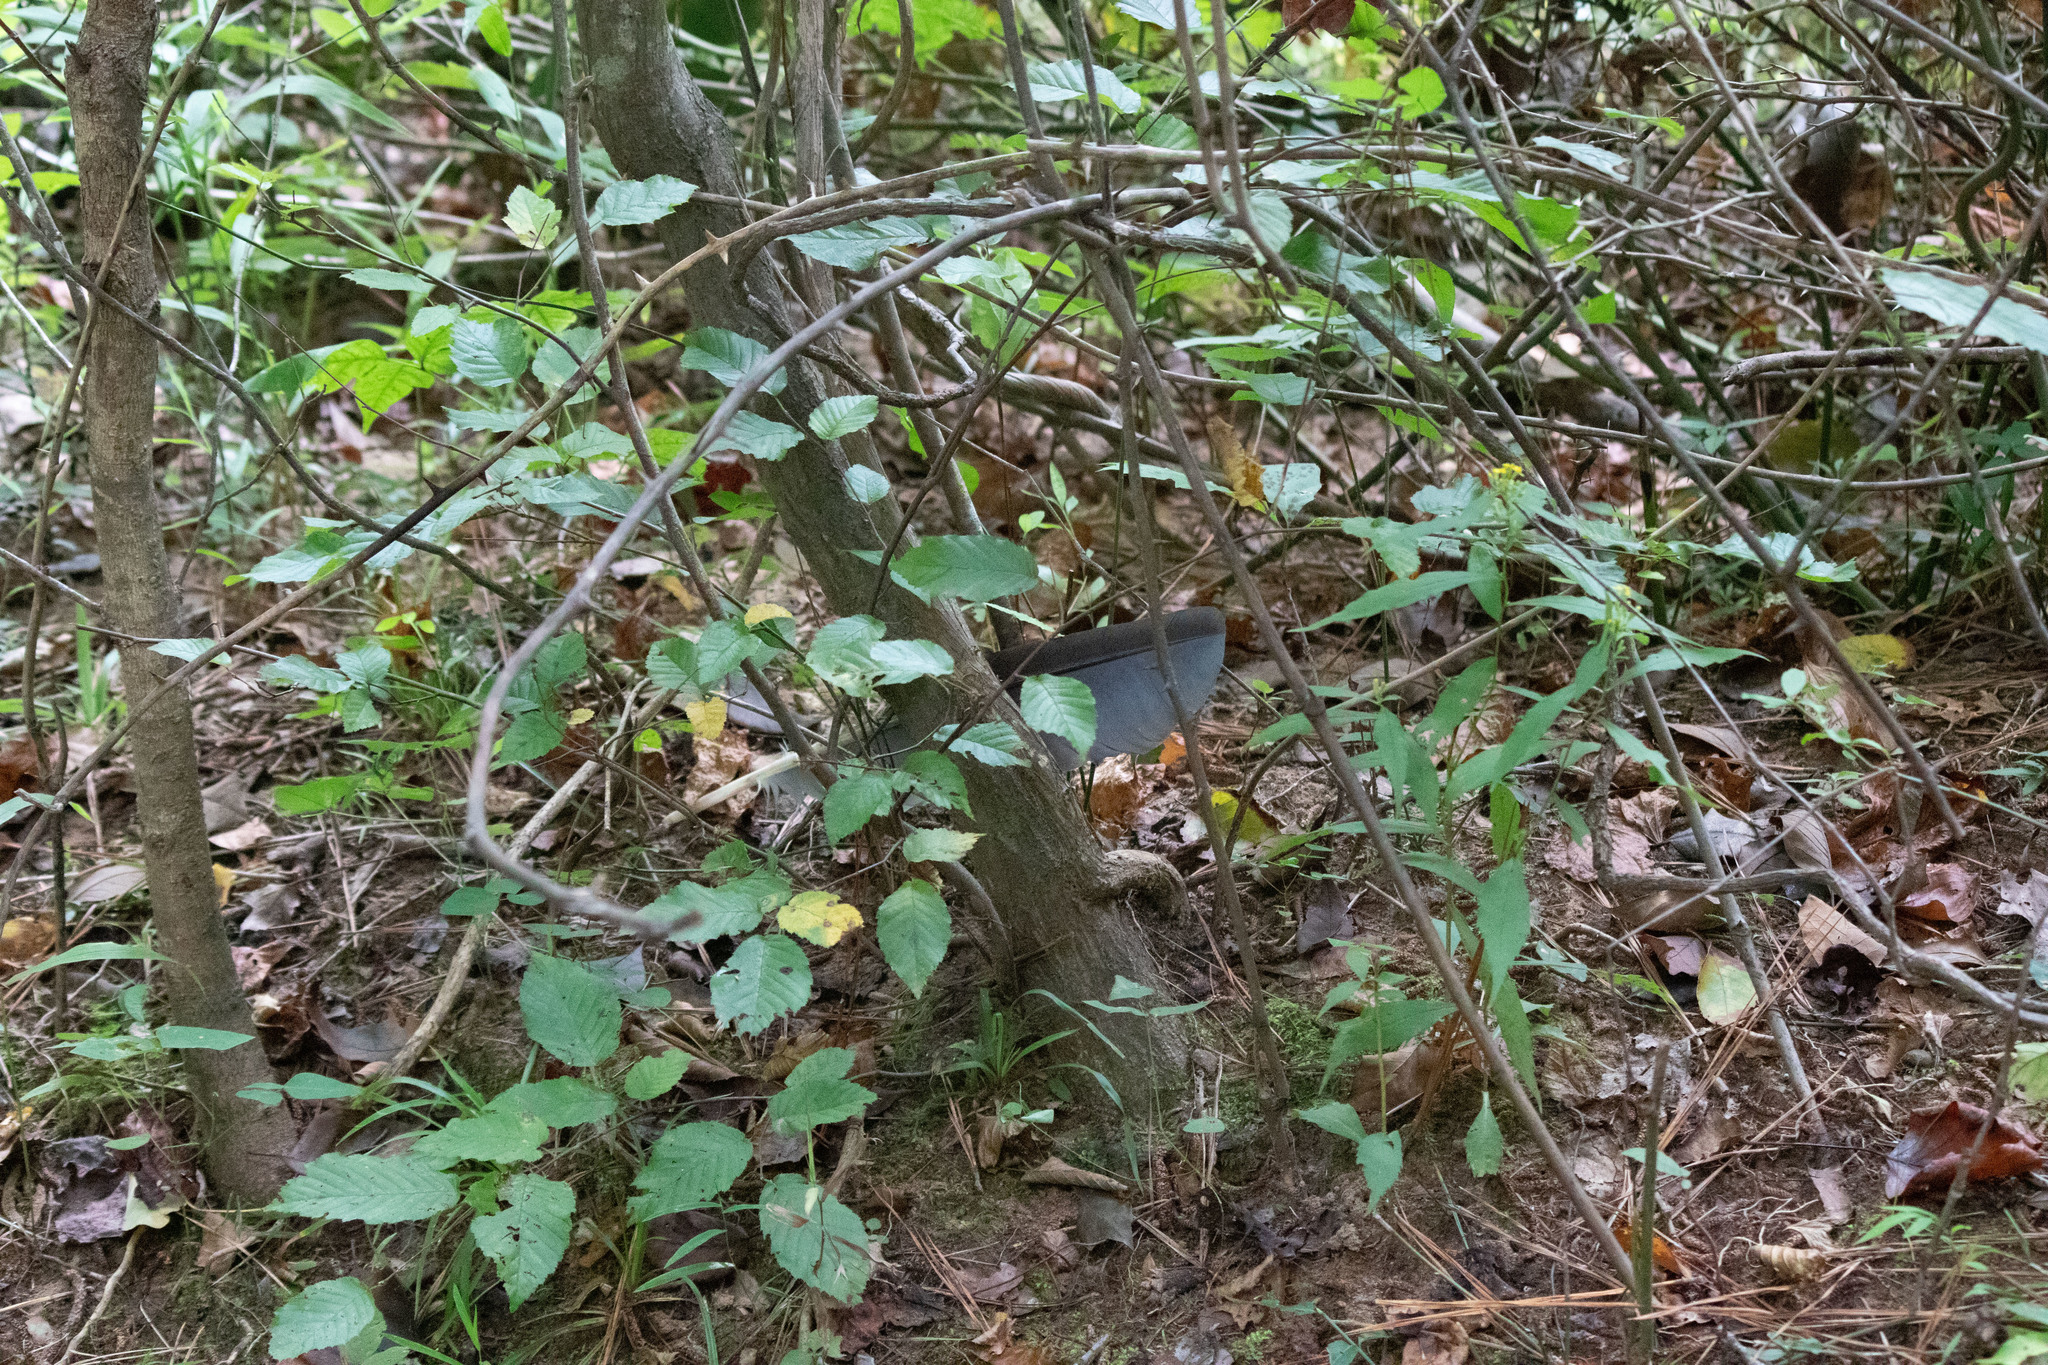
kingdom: Animalia
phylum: Chordata
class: Aves
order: Pelecaniformes
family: Ardeidae
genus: Ardea
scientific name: Ardea herodias
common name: Great blue heron
